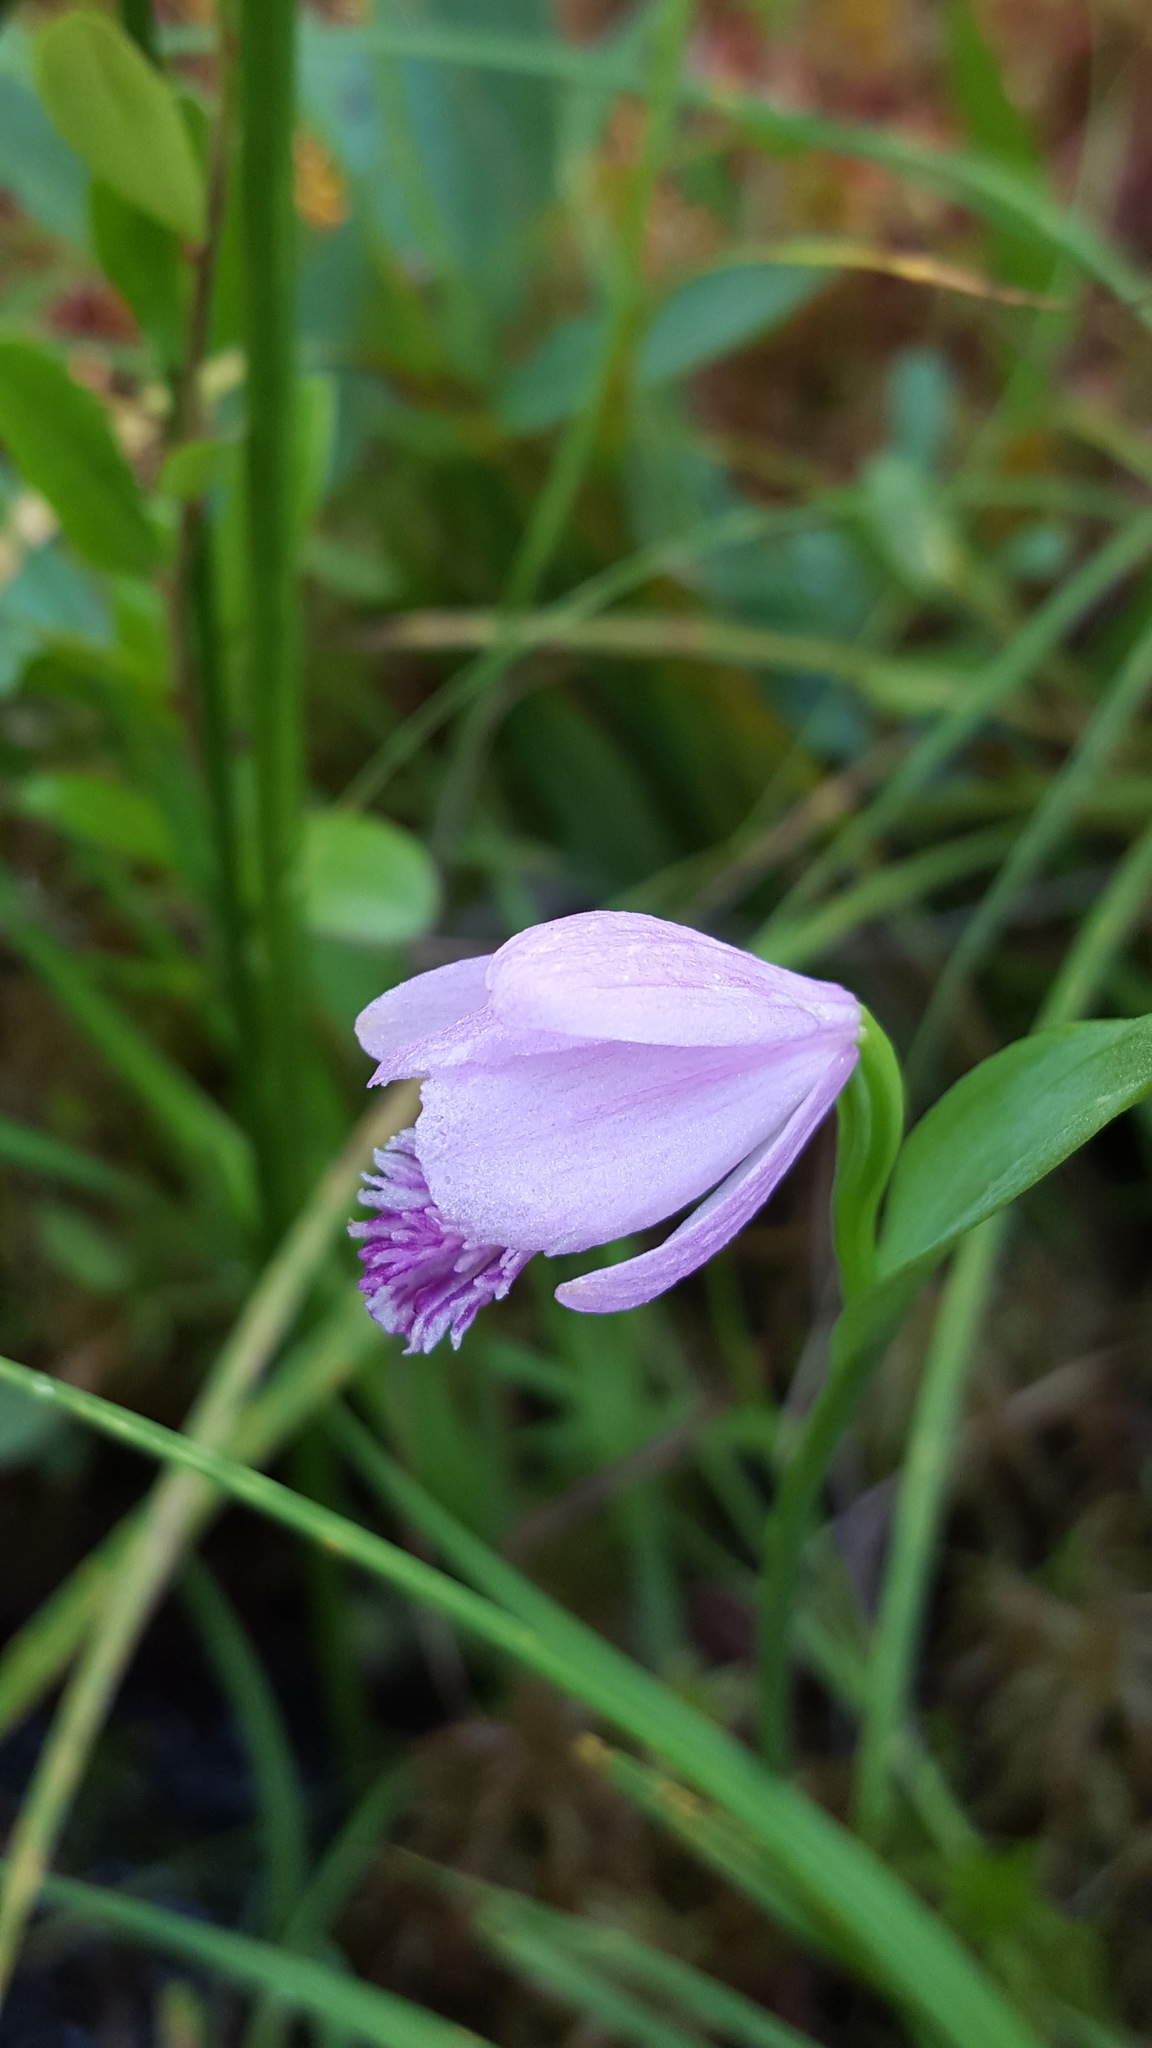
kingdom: Plantae
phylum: Tracheophyta
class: Liliopsida
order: Asparagales
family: Orchidaceae
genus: Pogonia
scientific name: Pogonia ophioglossoides
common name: Rose pogonia
